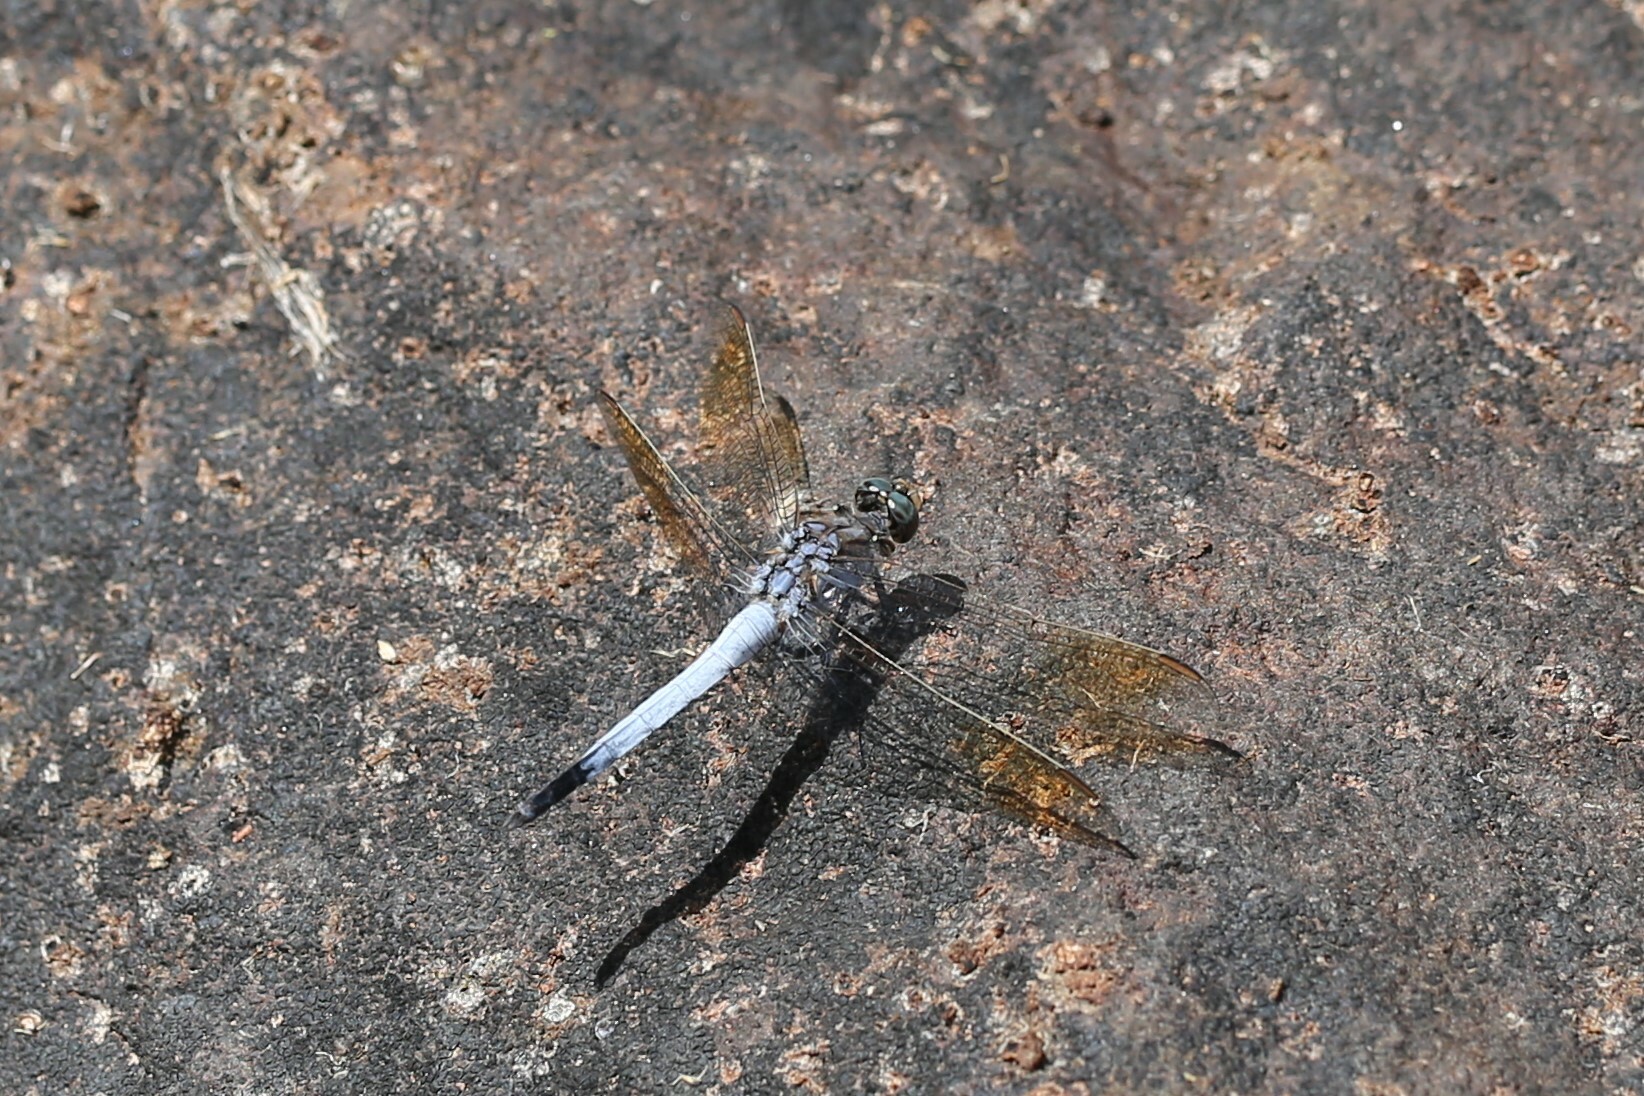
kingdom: Animalia
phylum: Arthropoda
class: Insecta
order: Odonata
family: Libellulidae
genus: Orthetrum
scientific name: Orthetrum caledonicum
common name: Blue skimmer
